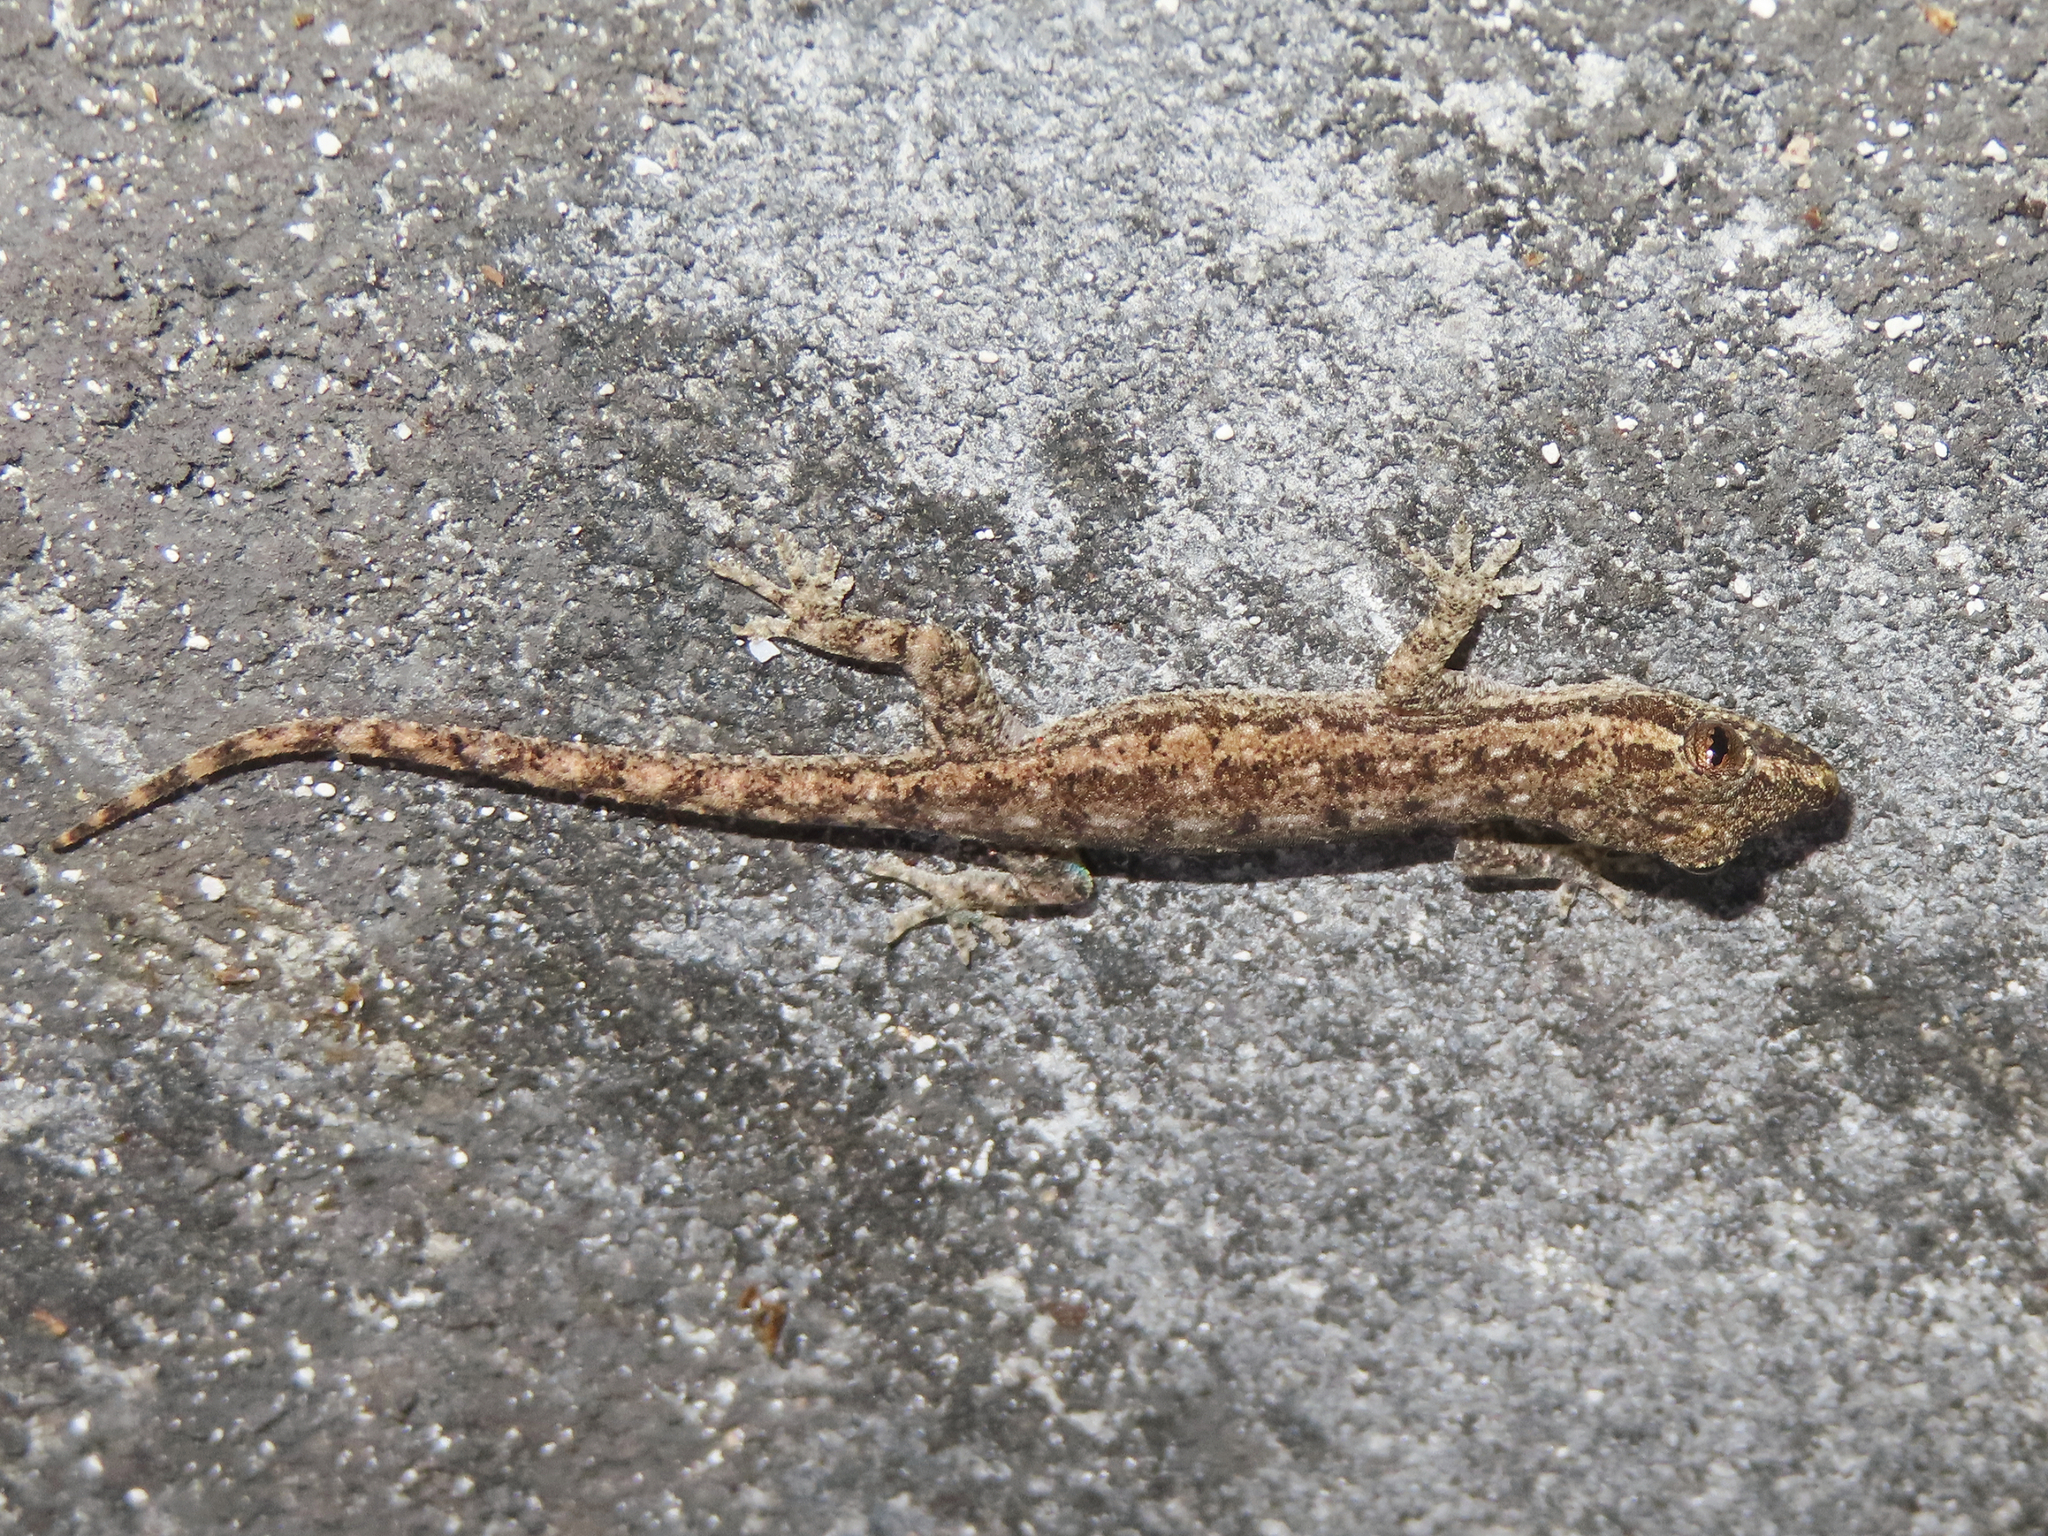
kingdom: Animalia
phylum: Chordata
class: Squamata
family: Gekkonidae
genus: Hemidactylus
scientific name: Hemidactylus frenatus
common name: Common house gecko
